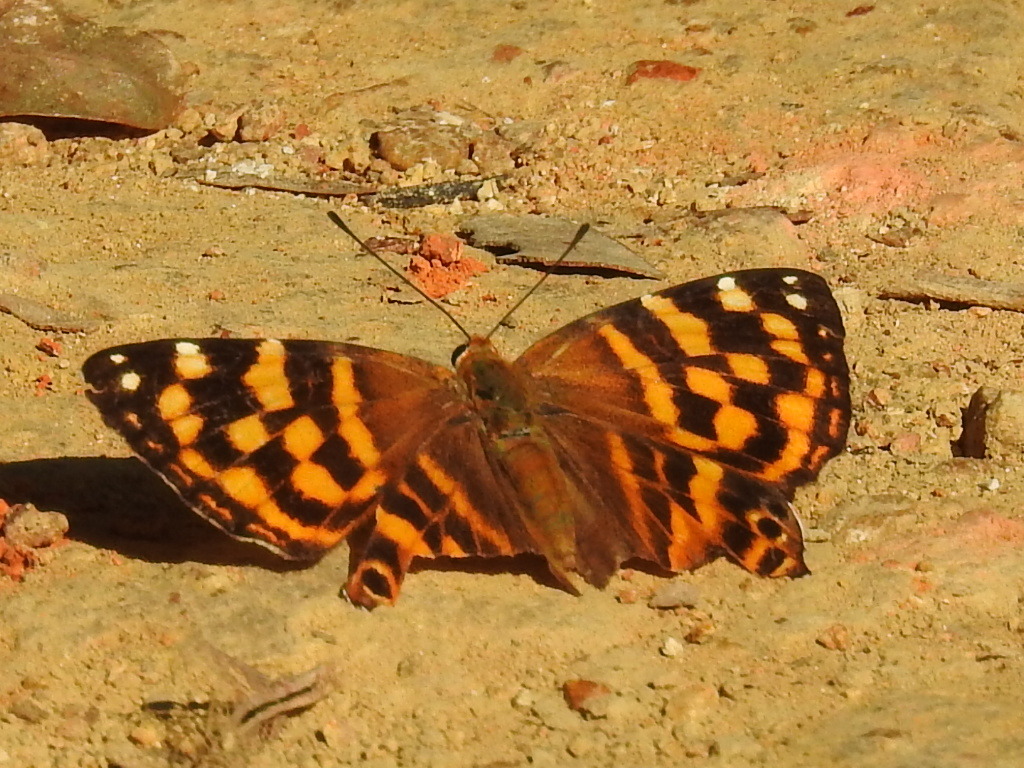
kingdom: Animalia
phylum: Arthropoda
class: Insecta
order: Lepidoptera
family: Lycaenidae
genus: Dodona
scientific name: Dodona egeon
